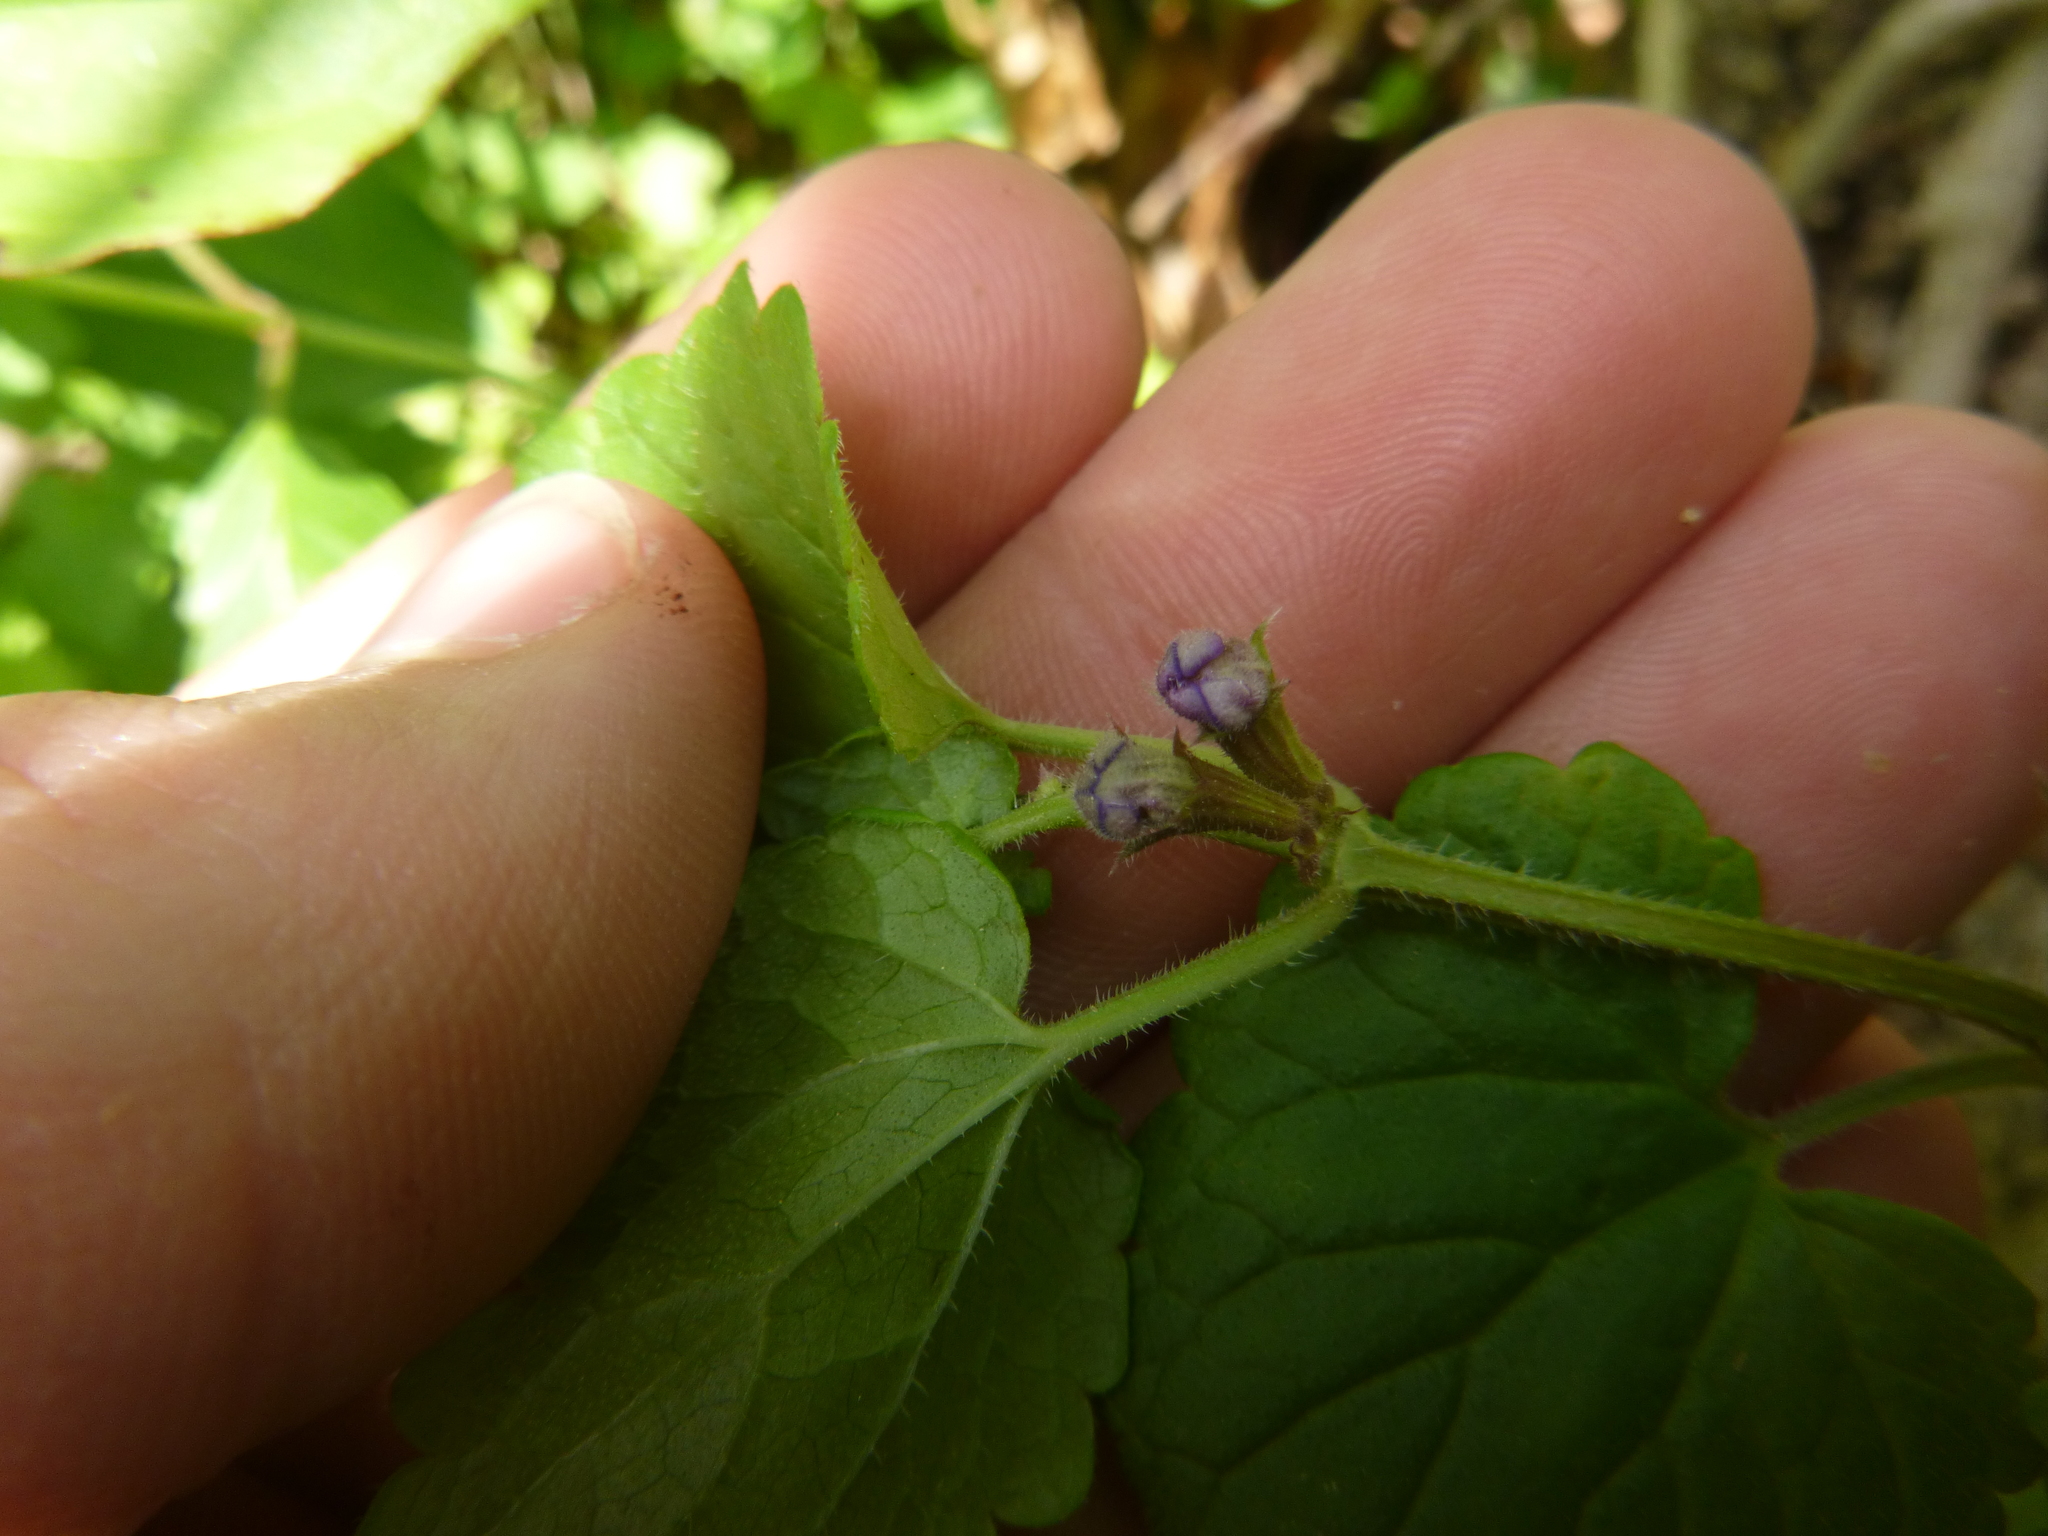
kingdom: Plantae
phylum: Tracheophyta
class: Magnoliopsida
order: Lamiales
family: Lamiaceae
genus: Glechoma
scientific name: Glechoma hederacea
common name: Ground ivy
